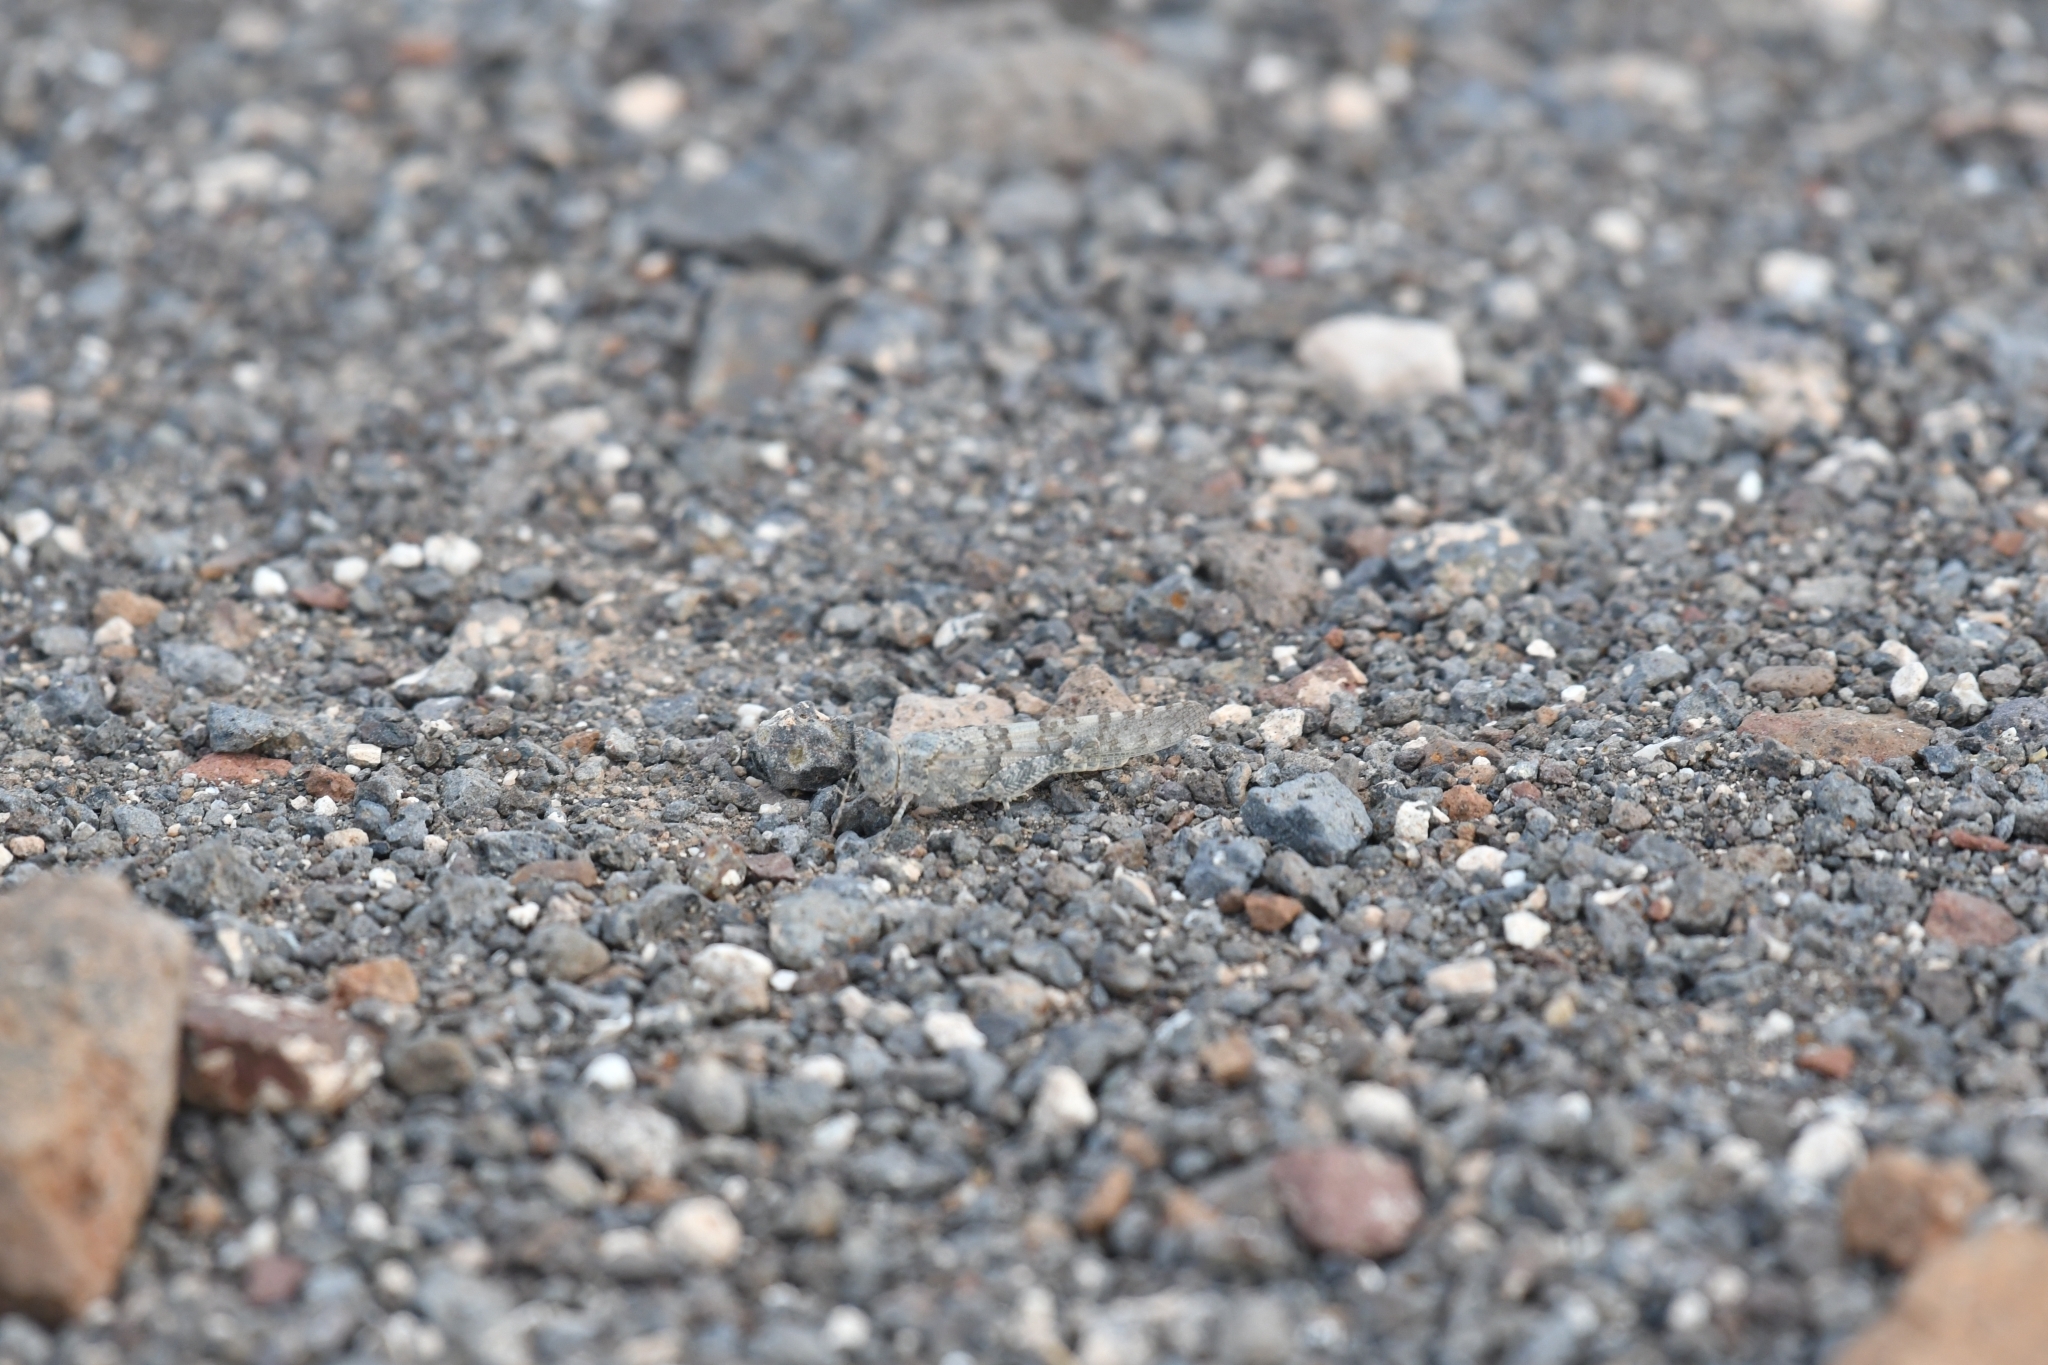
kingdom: Animalia
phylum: Arthropoda
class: Insecta
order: Orthoptera
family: Acrididae
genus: Sphingonotus
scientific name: Sphingonotus rubescens
